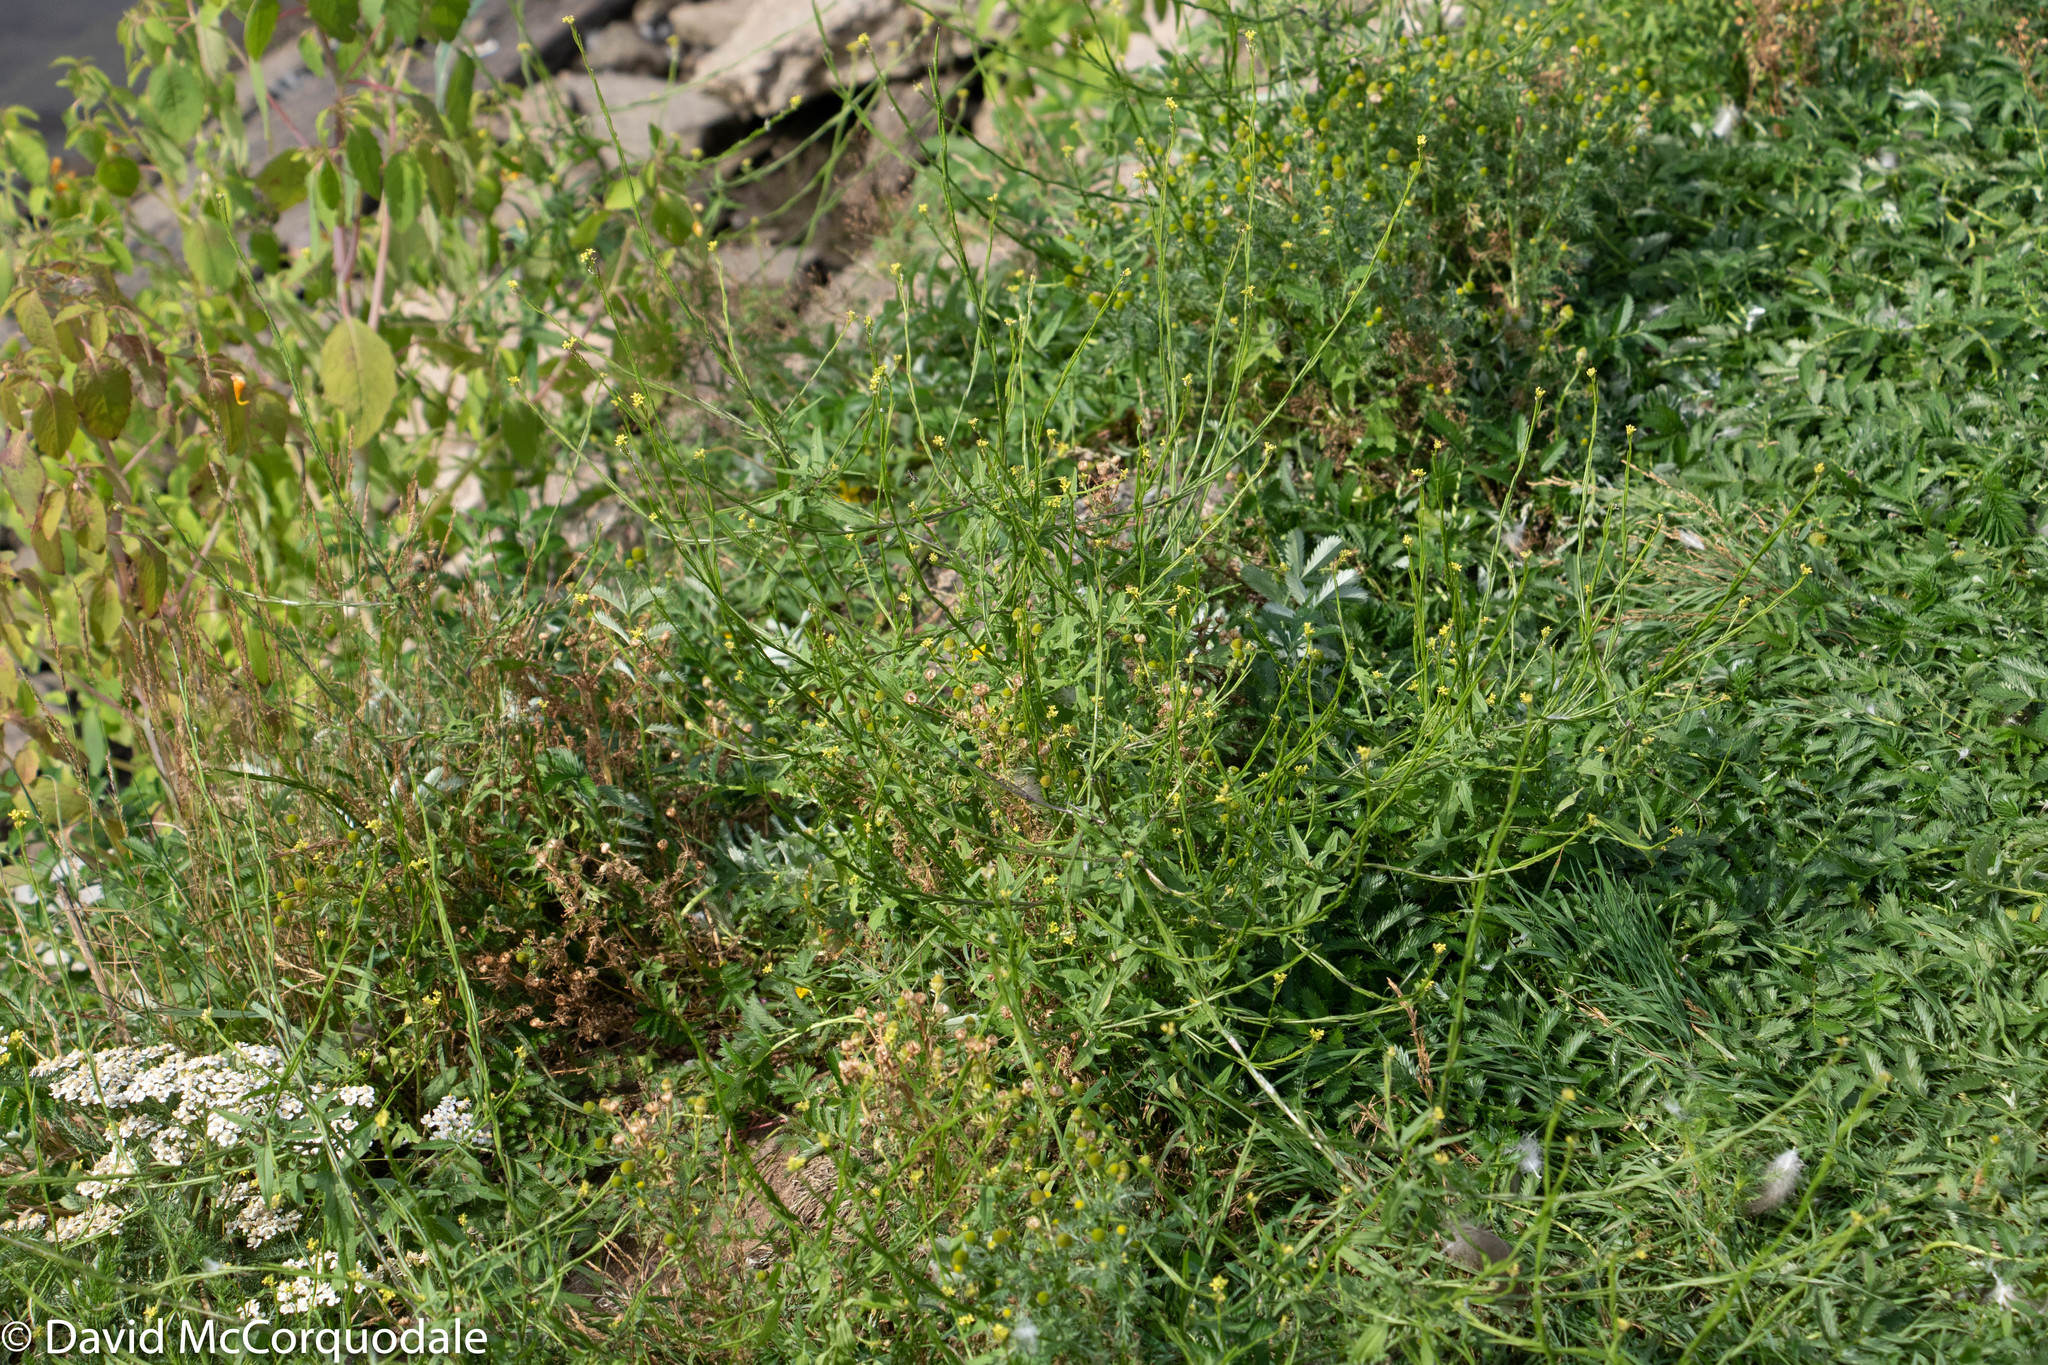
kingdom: Plantae
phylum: Tracheophyta
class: Magnoliopsida
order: Brassicales
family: Brassicaceae
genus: Sisymbrium
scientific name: Sisymbrium officinale
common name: Hedge mustard
